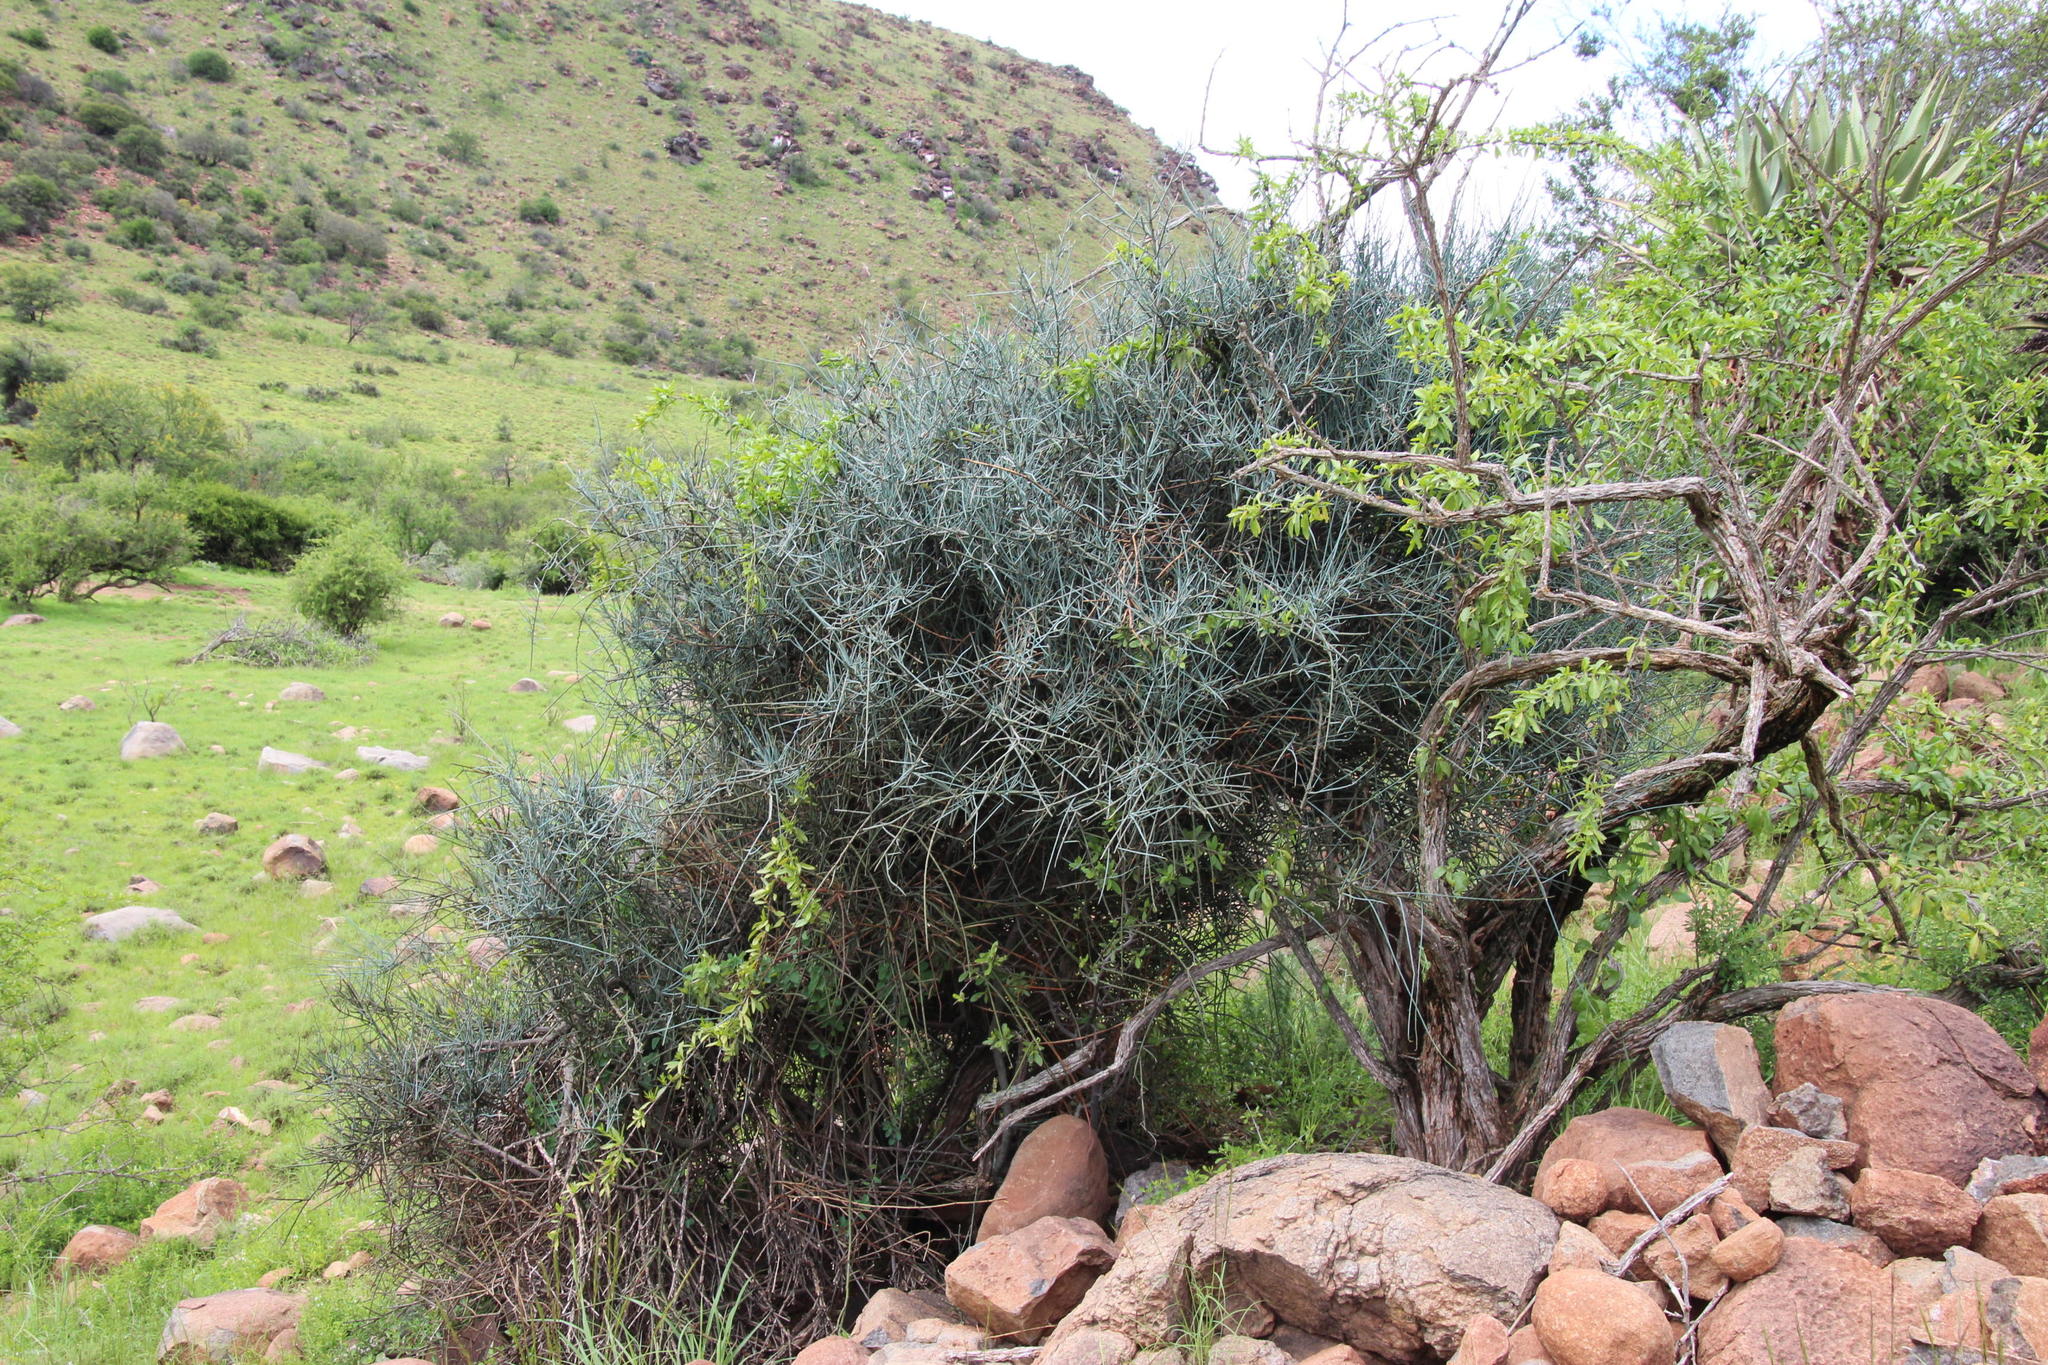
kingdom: Plantae
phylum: Tracheophyta
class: Magnoliopsida
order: Brassicales
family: Capparaceae
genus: Cadaba
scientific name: Cadaba aphylla
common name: Black storm
